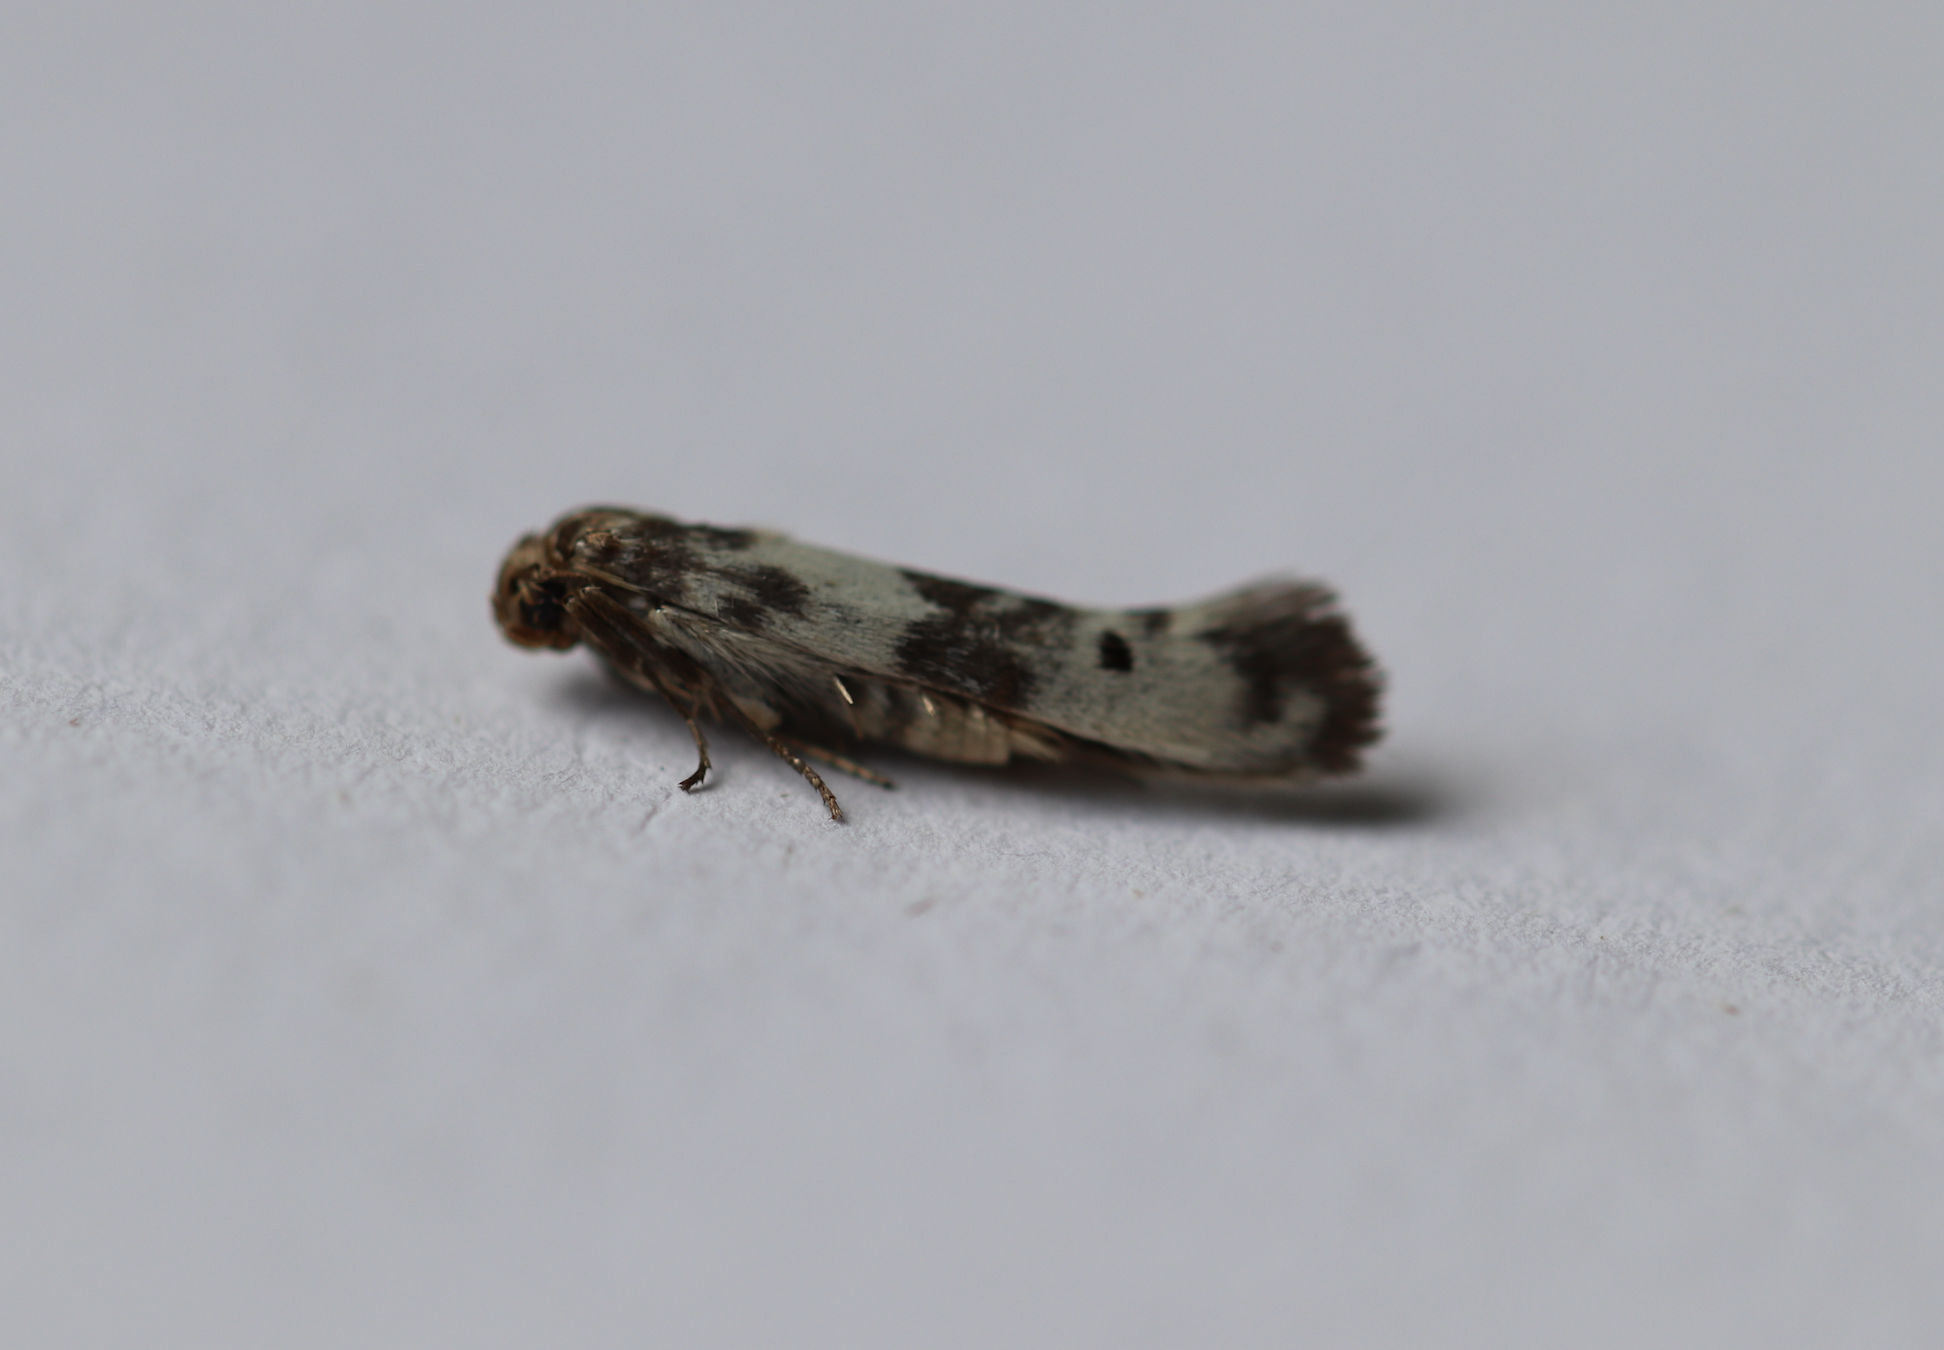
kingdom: Animalia
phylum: Arthropoda
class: Insecta
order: Lepidoptera
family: Scythrididae
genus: Enolmis
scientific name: Enolmis acanthella
